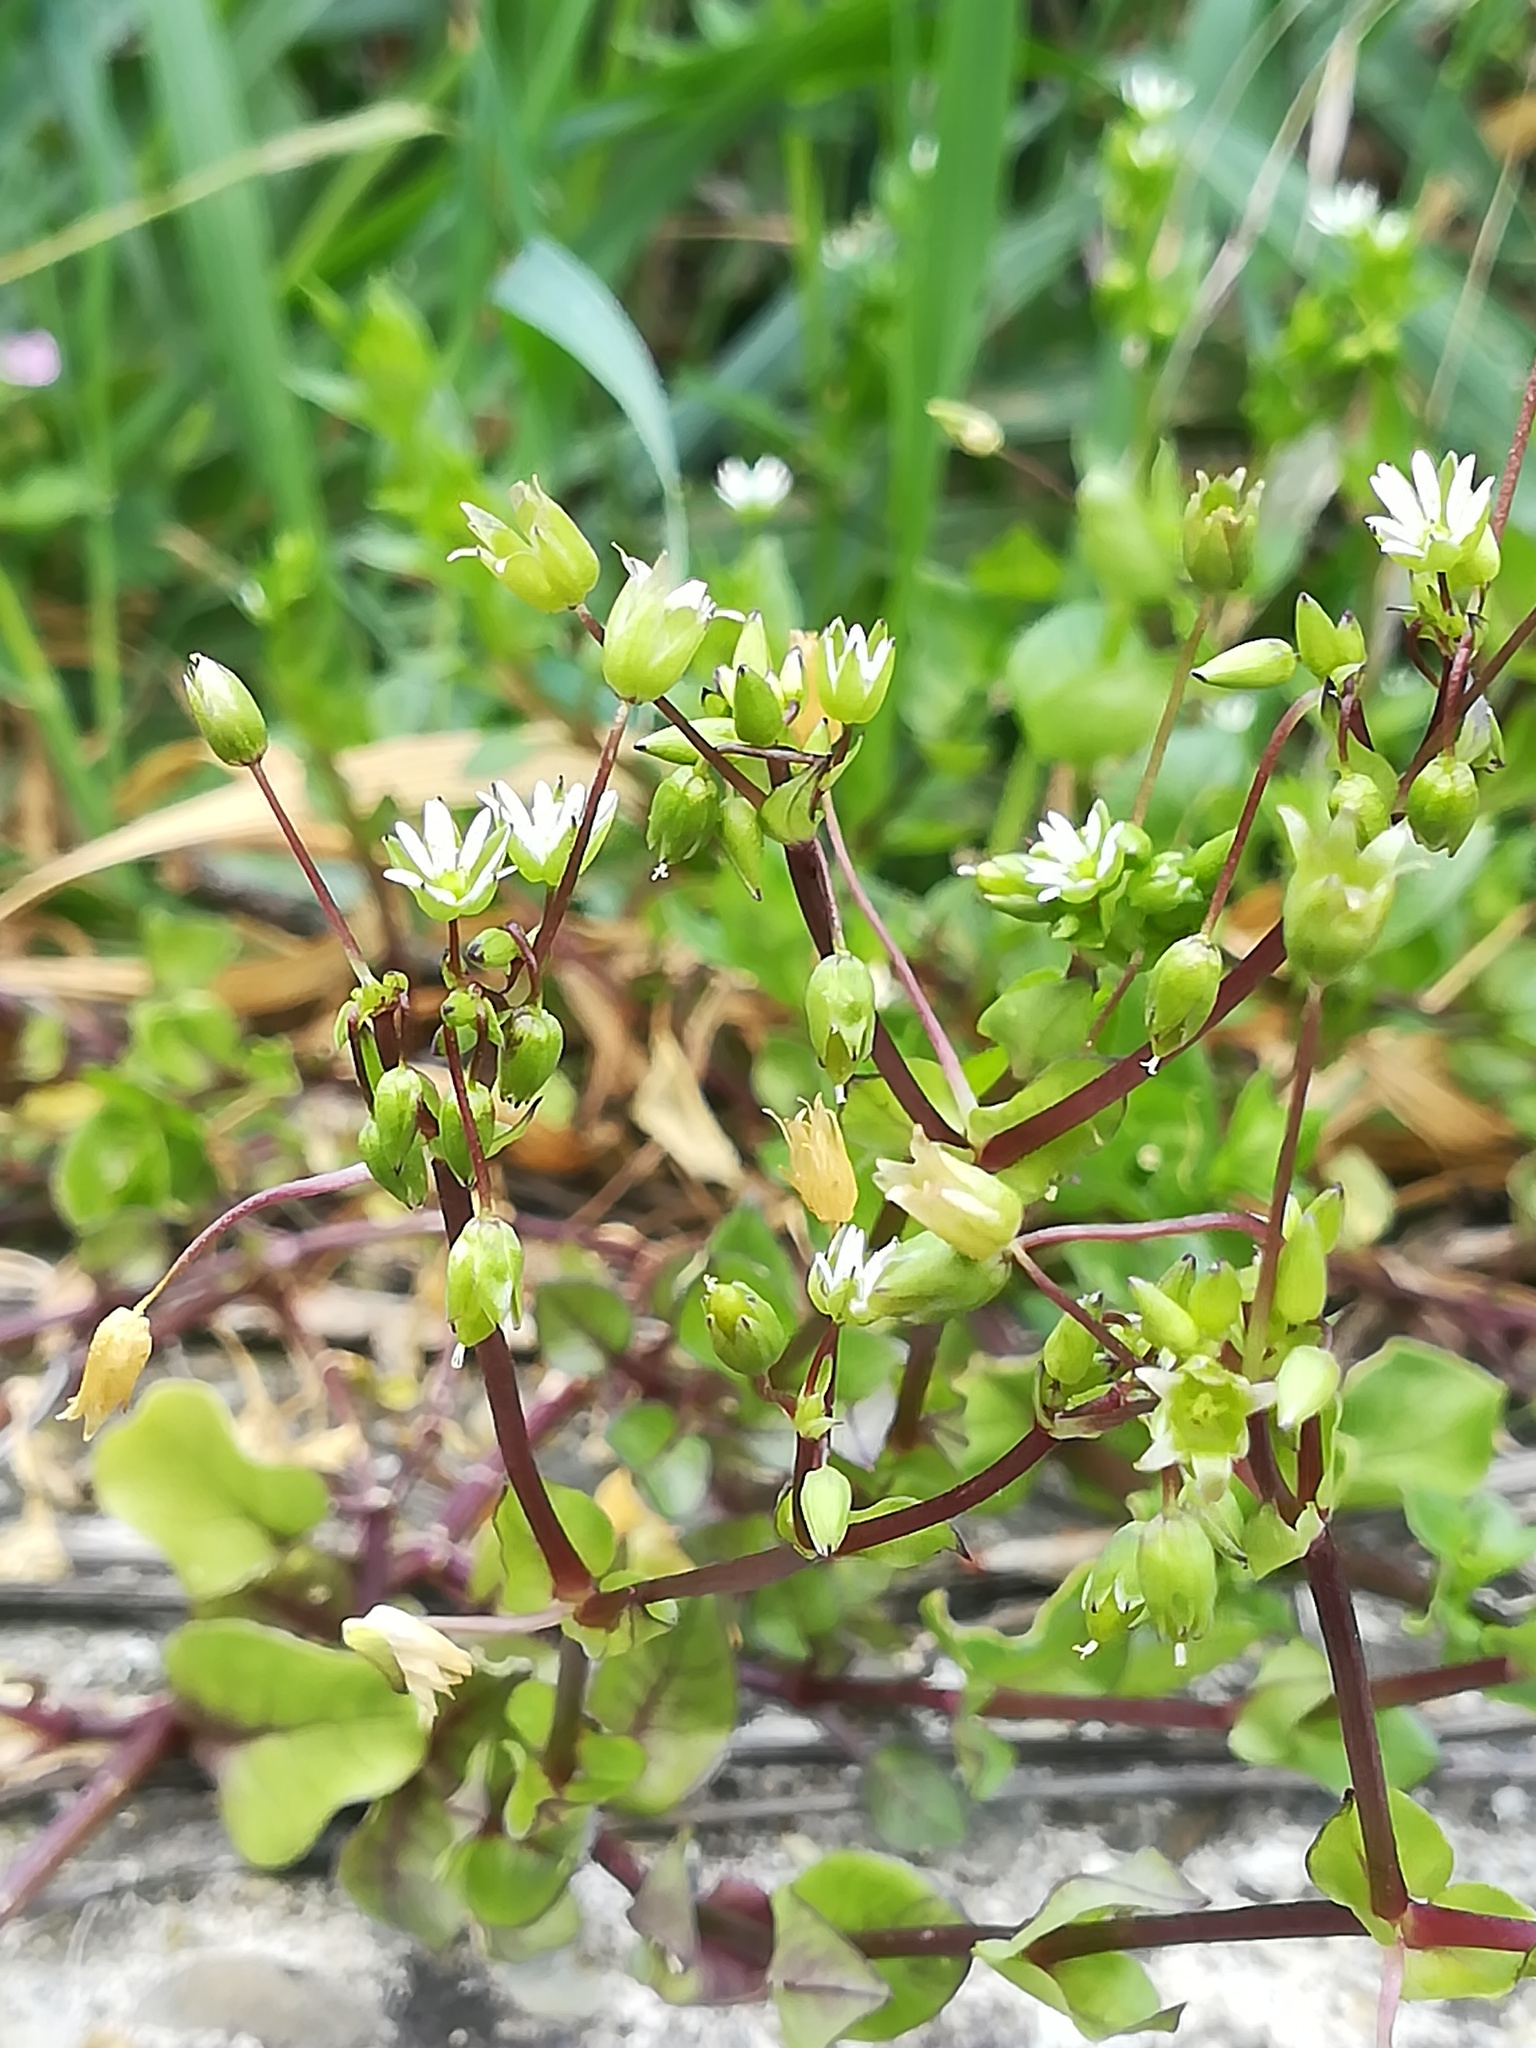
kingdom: Plantae
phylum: Tracheophyta
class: Magnoliopsida
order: Caryophyllales
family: Caryophyllaceae
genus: Stellaria
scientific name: Stellaria media
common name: Common chickweed
